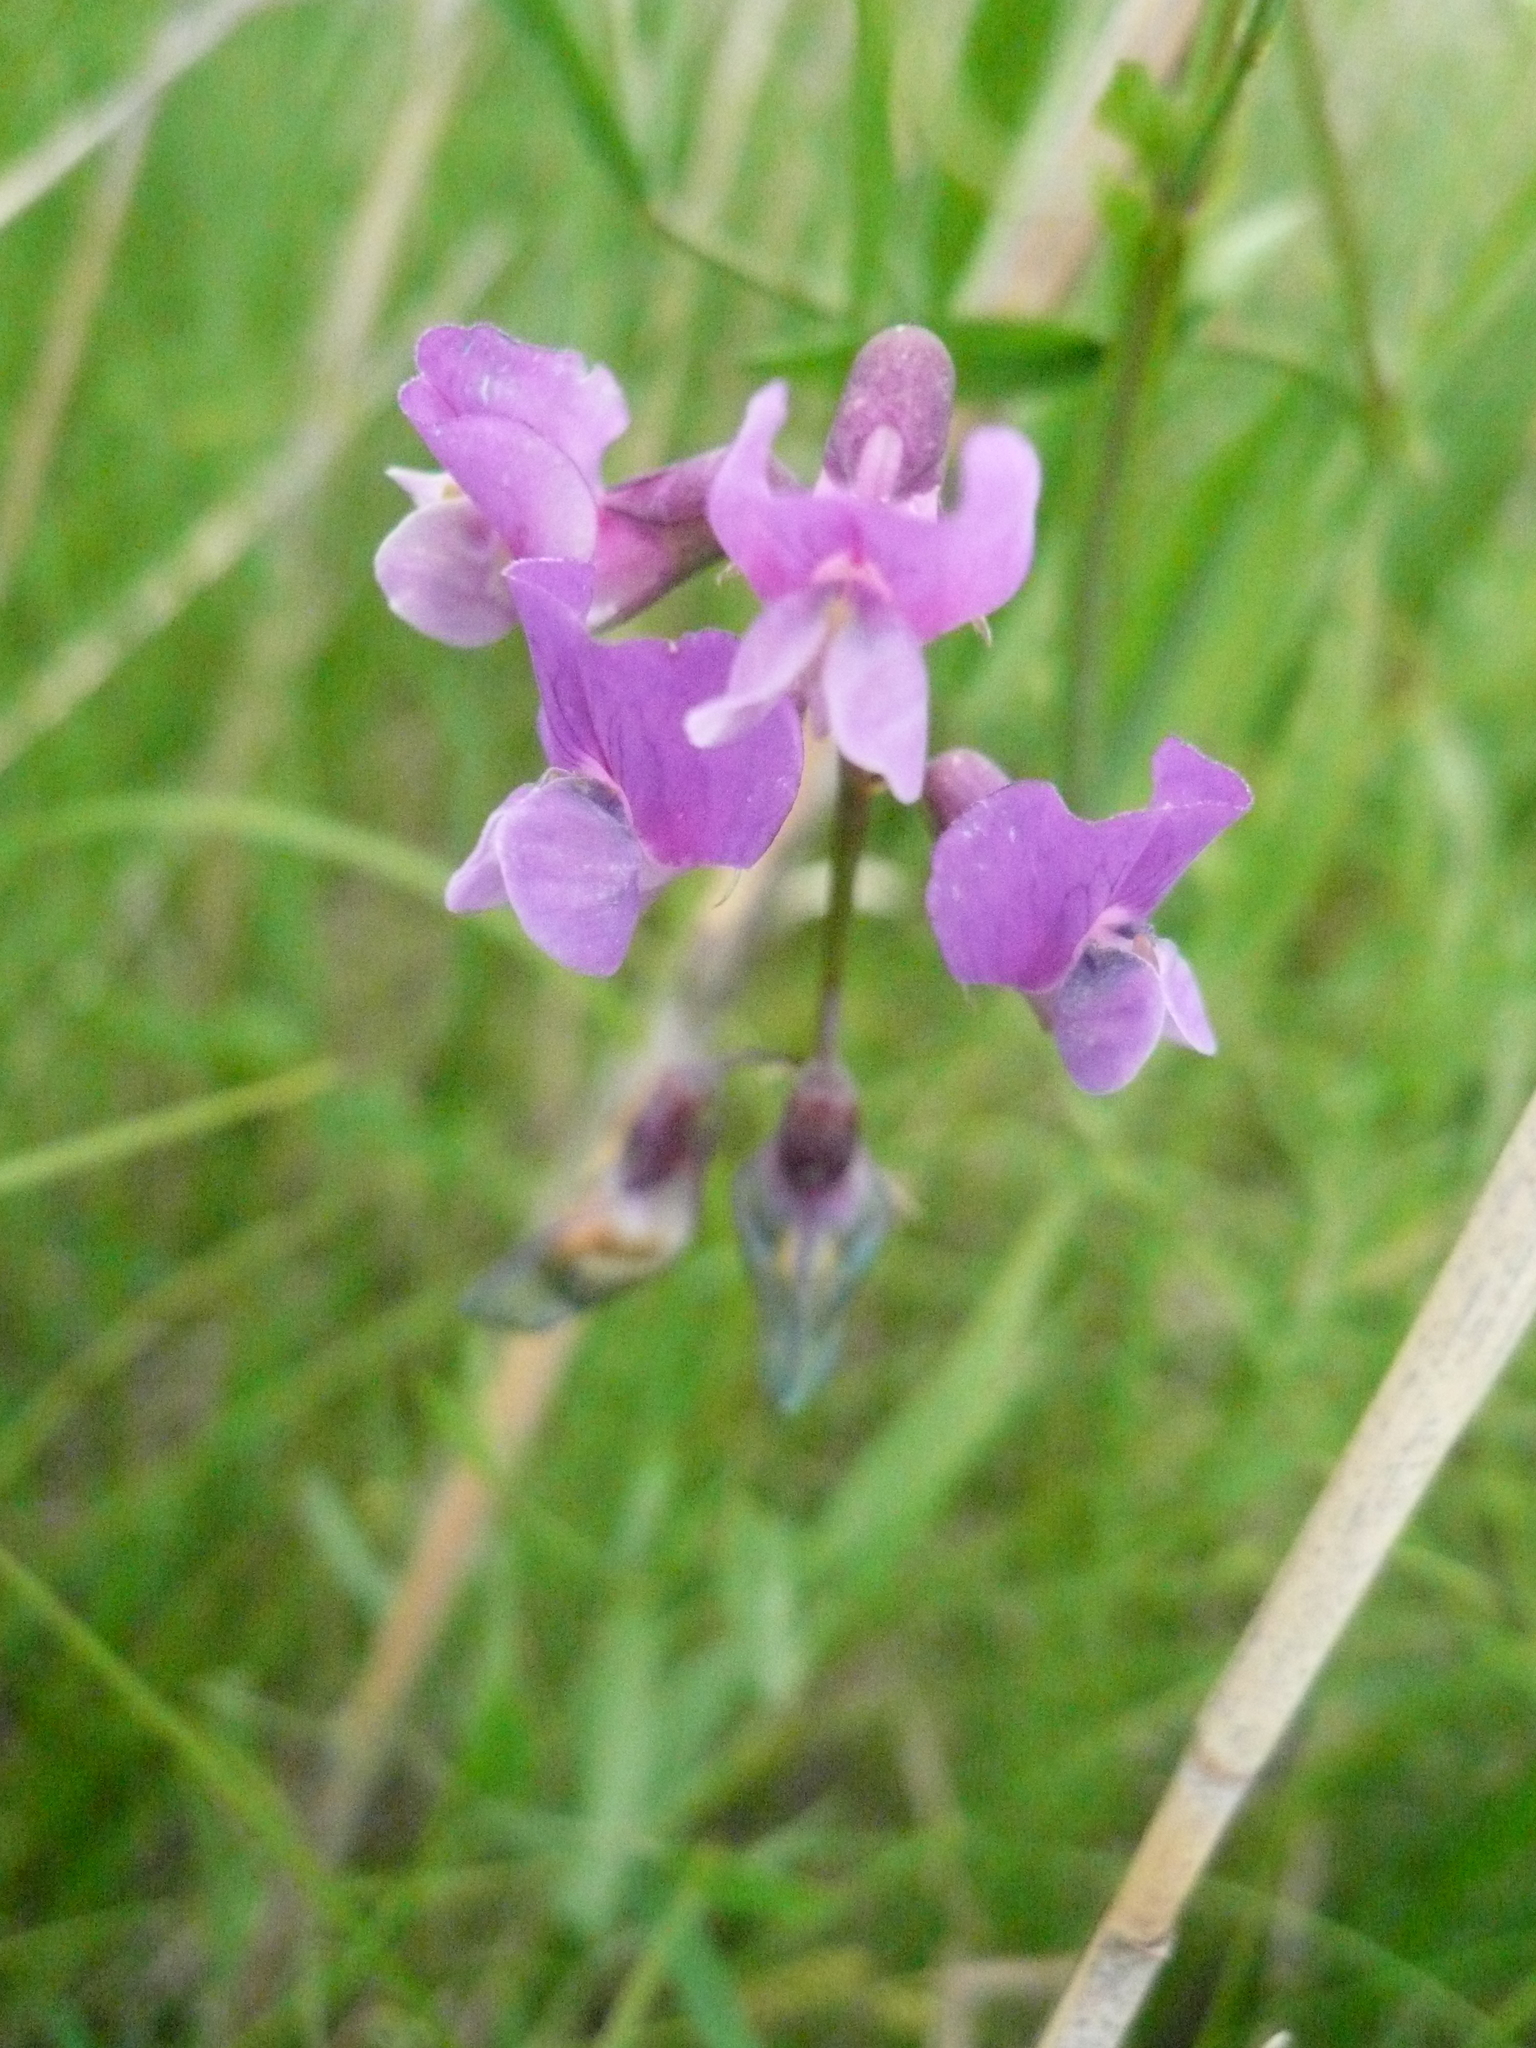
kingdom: Plantae
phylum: Tracheophyta
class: Magnoliopsida
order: Fabales
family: Fabaceae
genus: Lathyrus
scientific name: Lathyrus palustris
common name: Marsh pea
